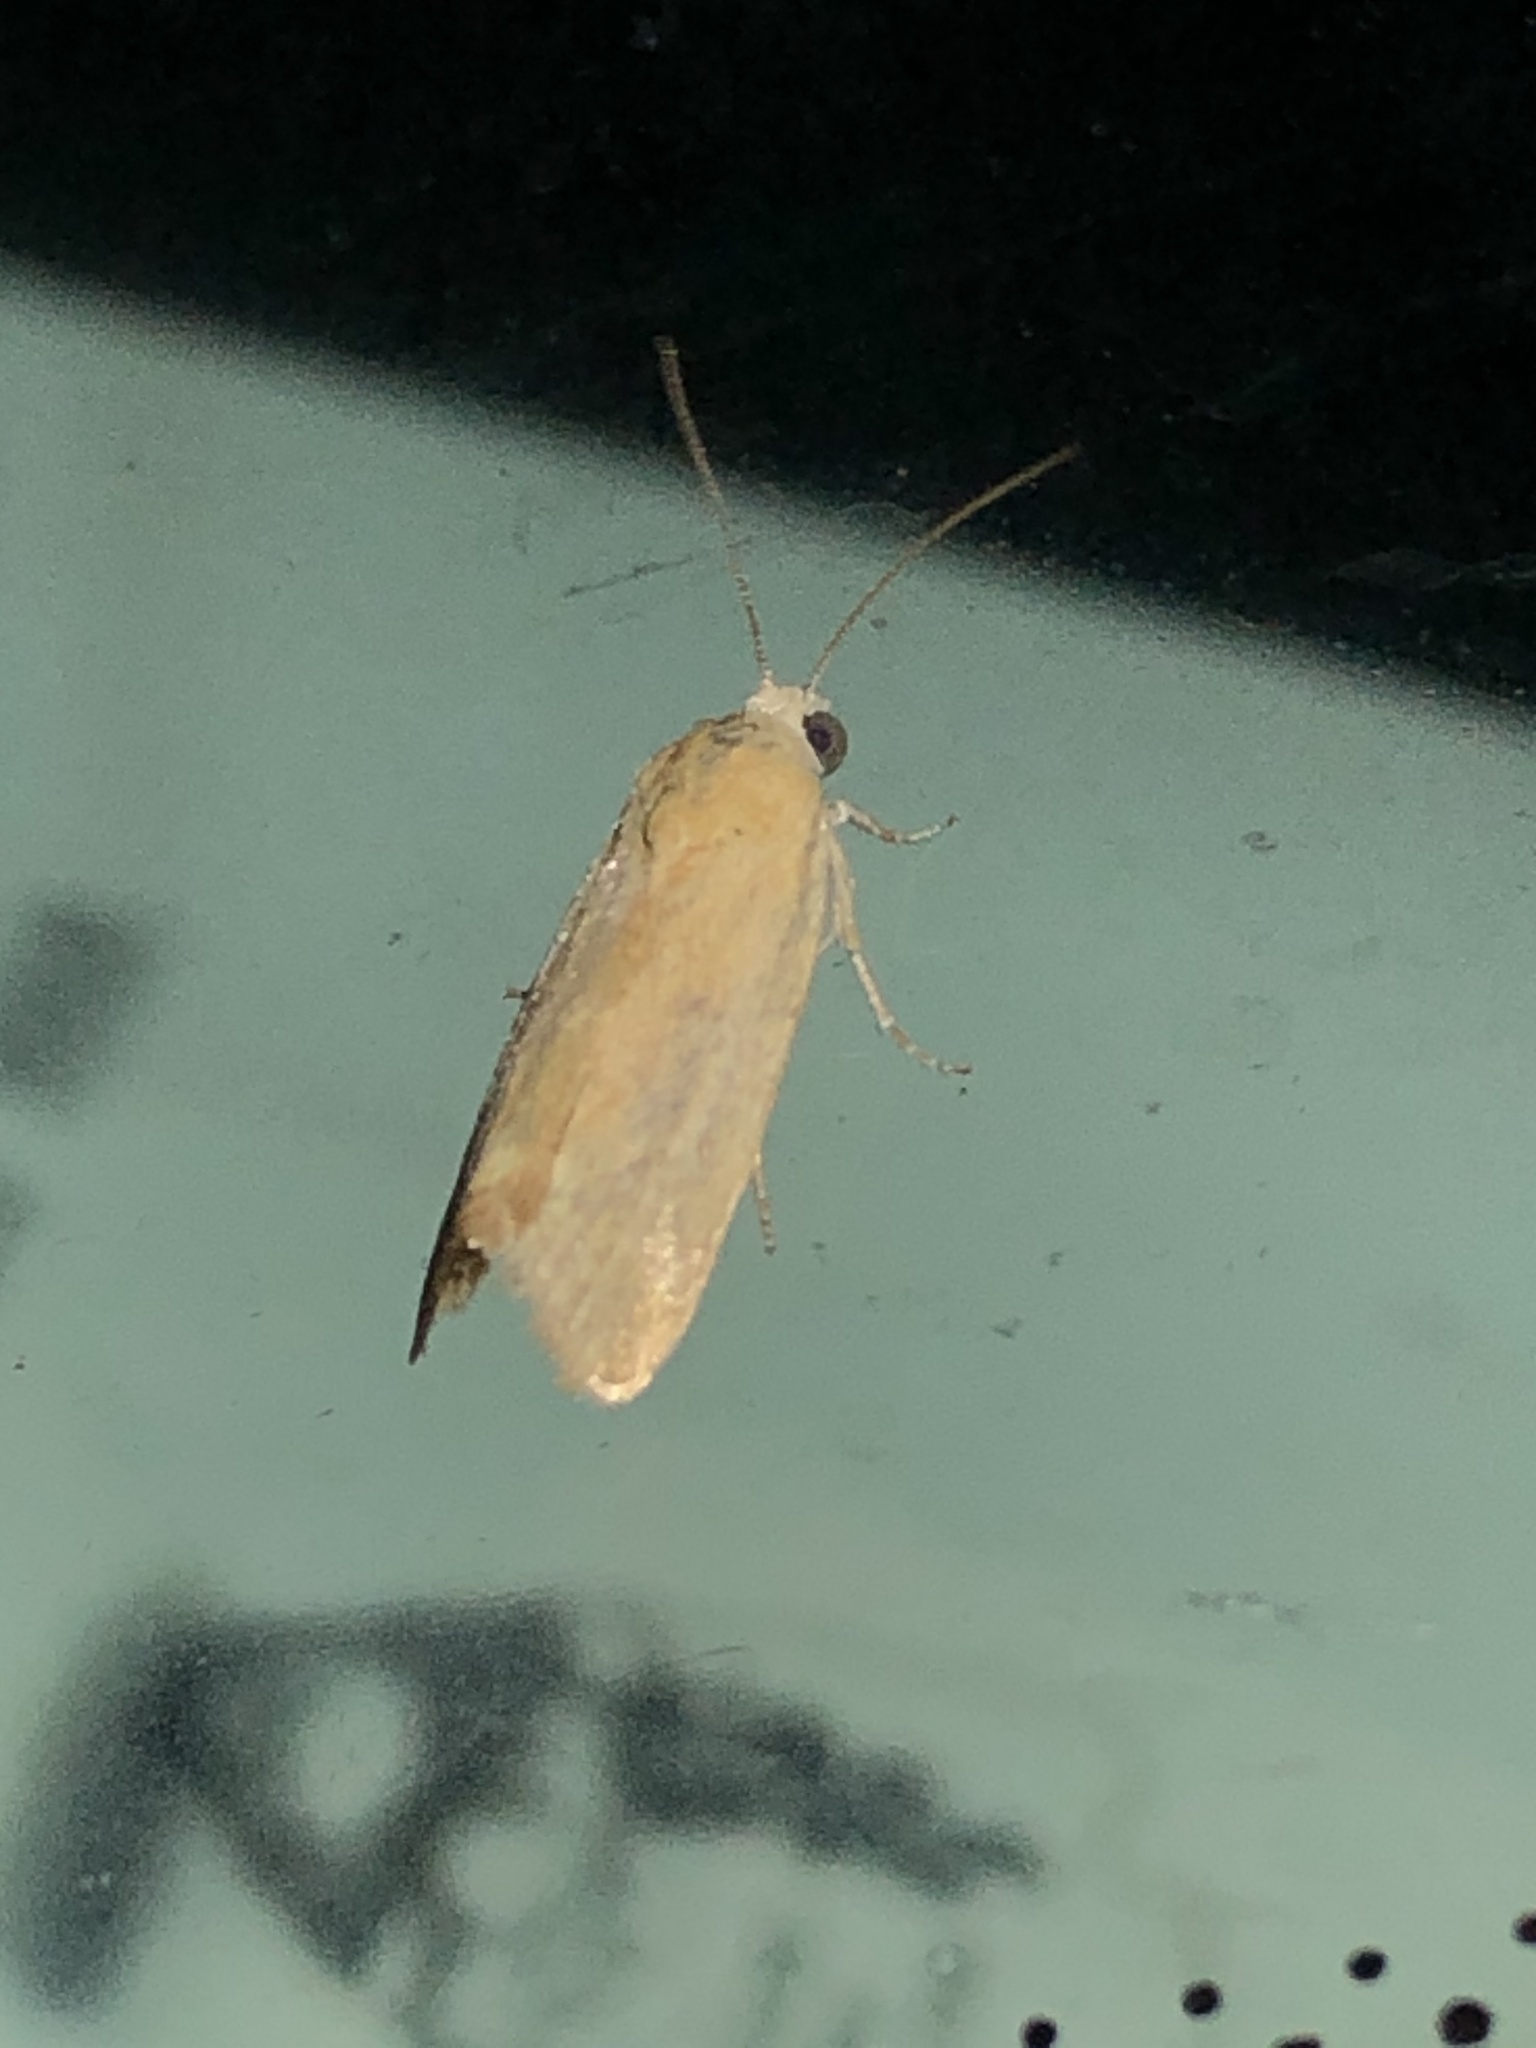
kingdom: Animalia
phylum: Arthropoda
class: Insecta
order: Lepidoptera
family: Noctuidae
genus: Acontia
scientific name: Acontia fasciatella
